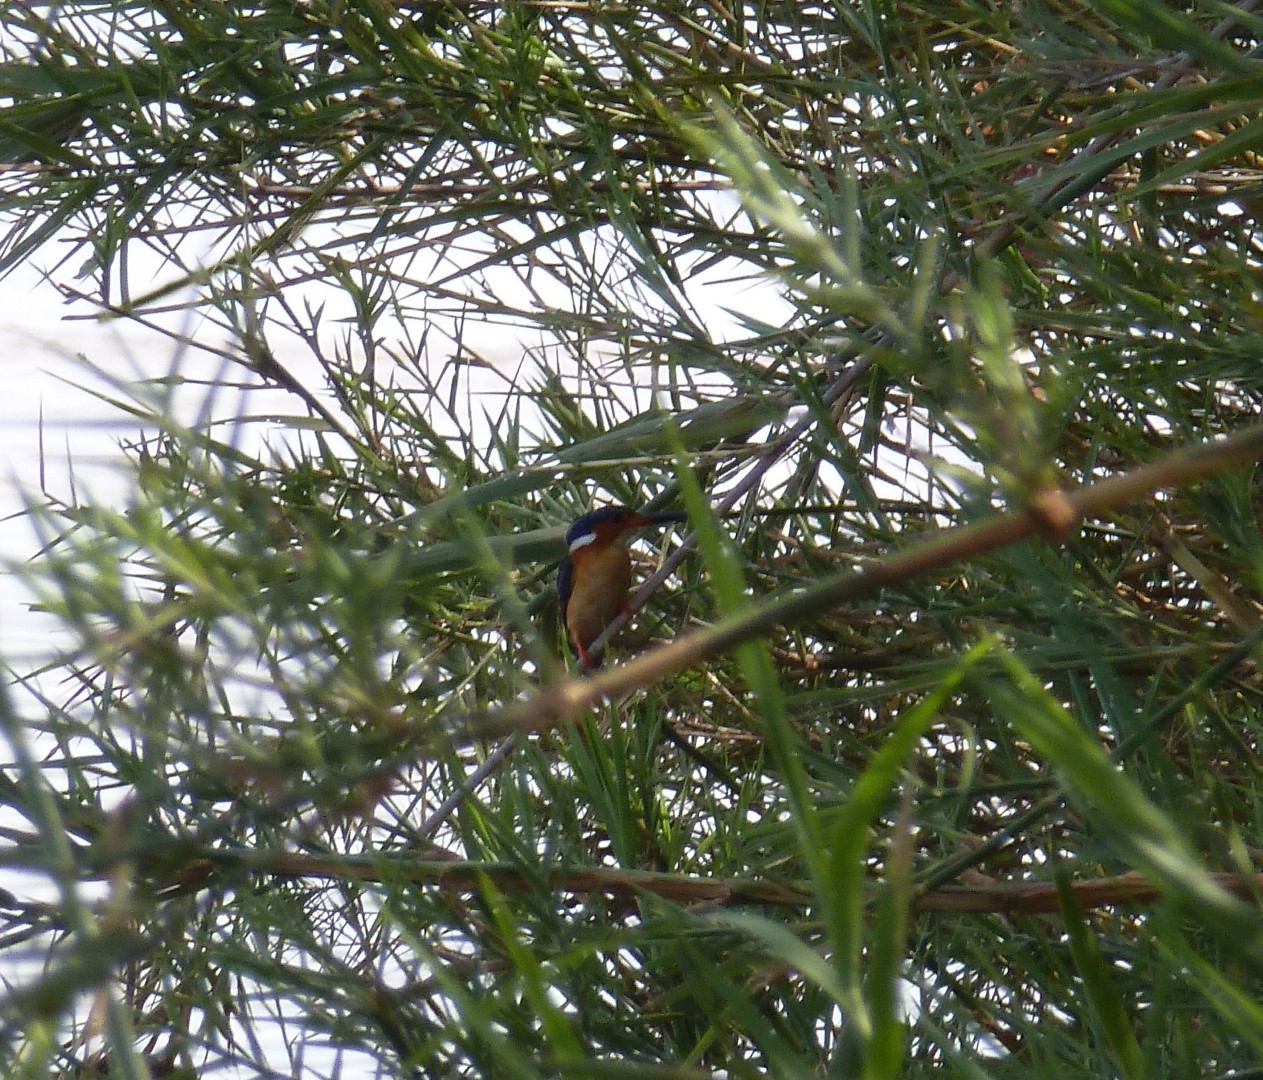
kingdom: Animalia
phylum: Chordata
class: Aves
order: Coraciiformes
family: Alcedinidae
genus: Corythornis
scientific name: Corythornis vintsioides
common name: Malagasy kingfisher
